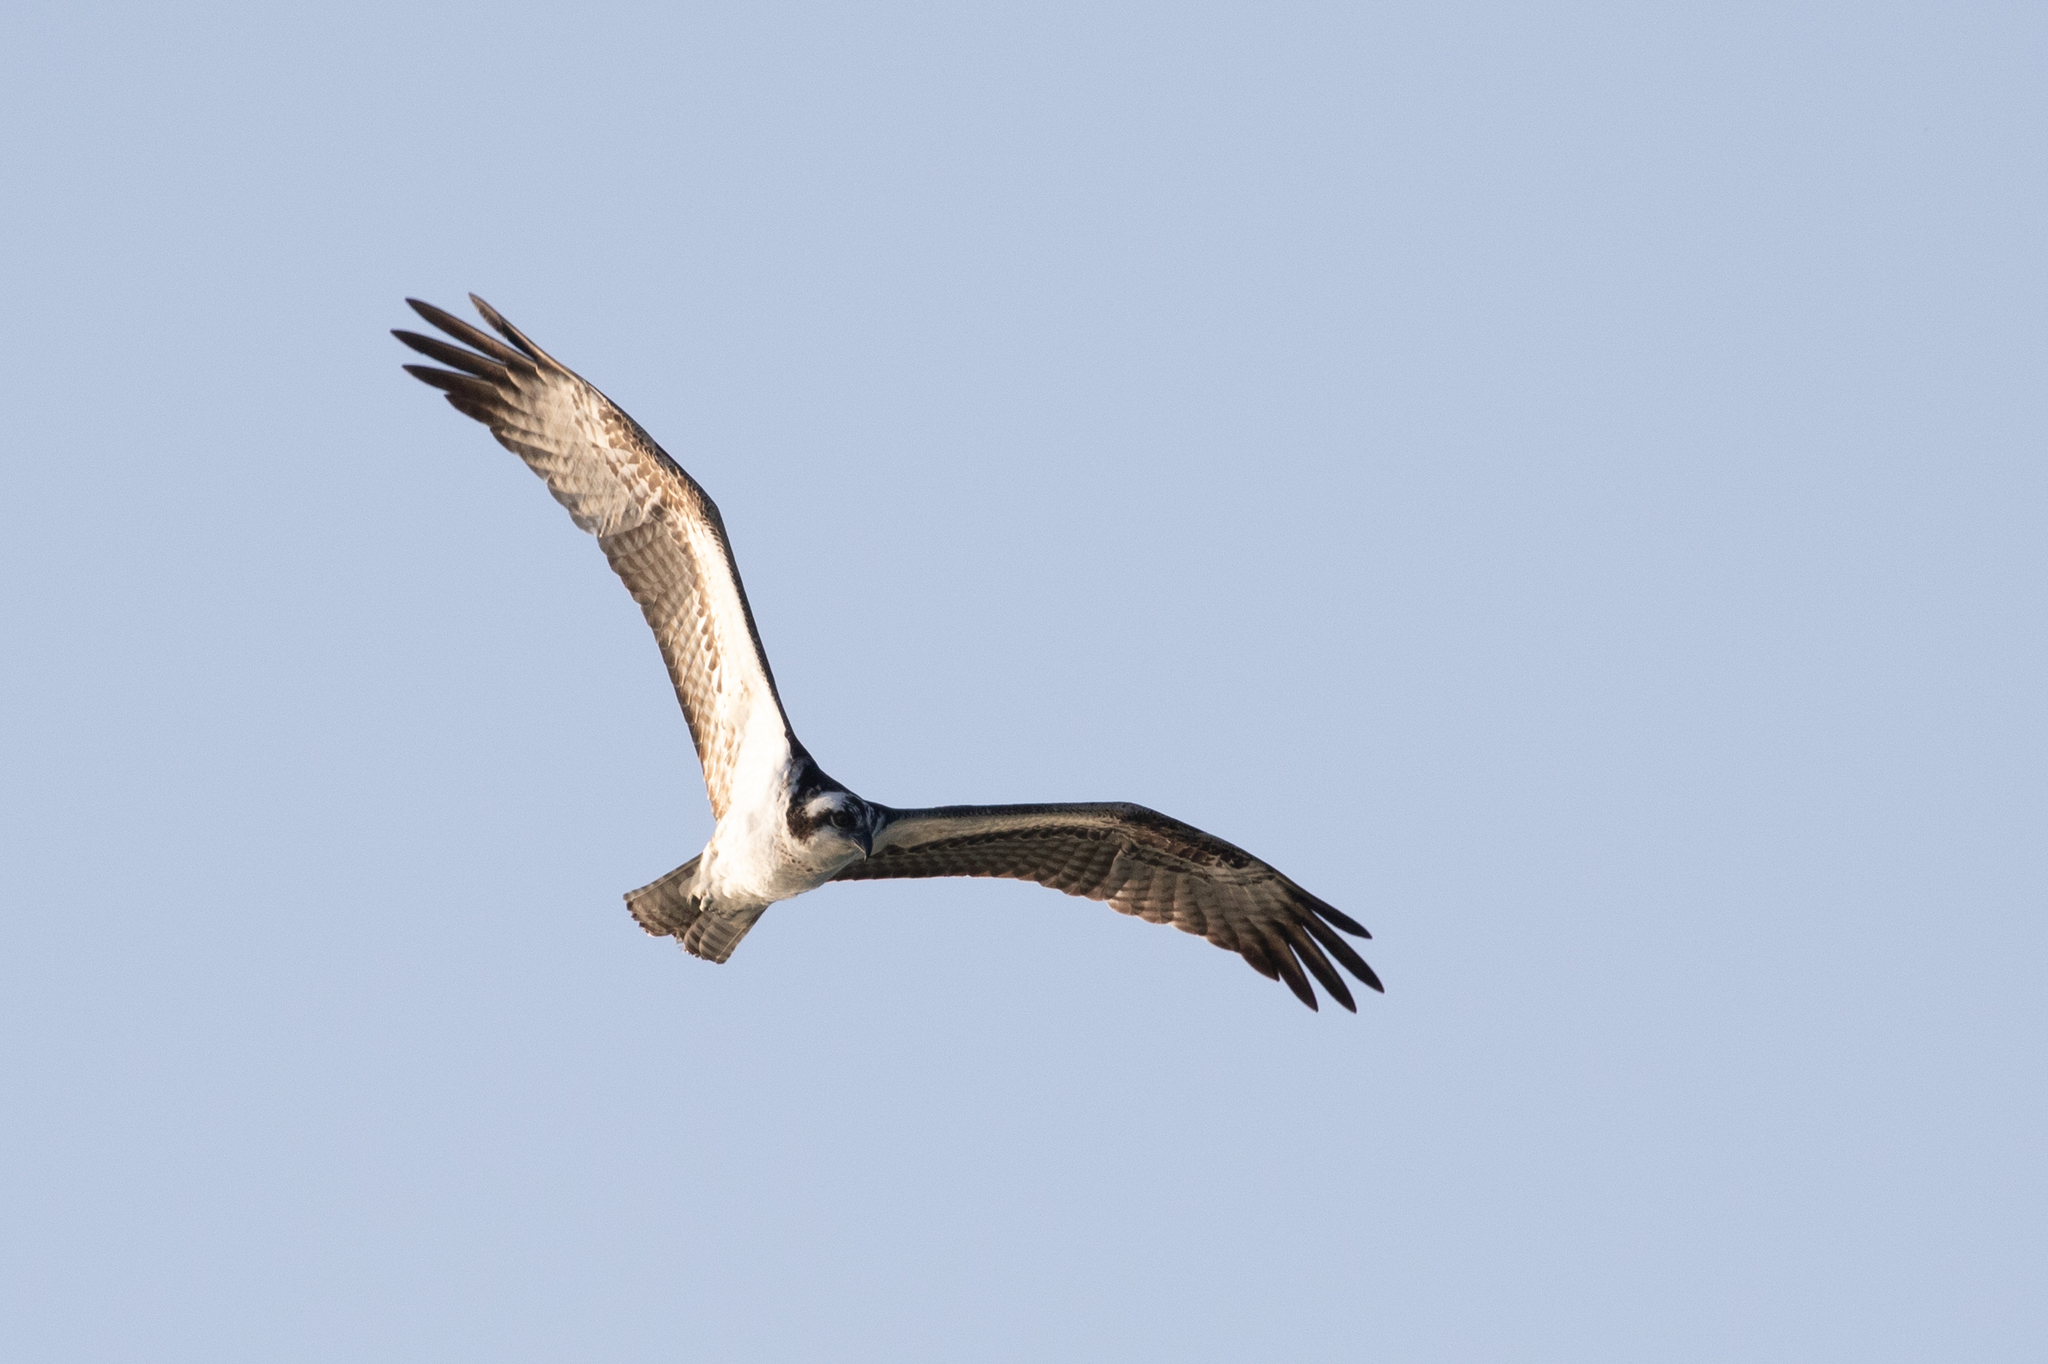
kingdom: Animalia
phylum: Chordata
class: Aves
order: Accipitriformes
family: Pandionidae
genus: Pandion
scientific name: Pandion haliaetus
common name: Osprey
